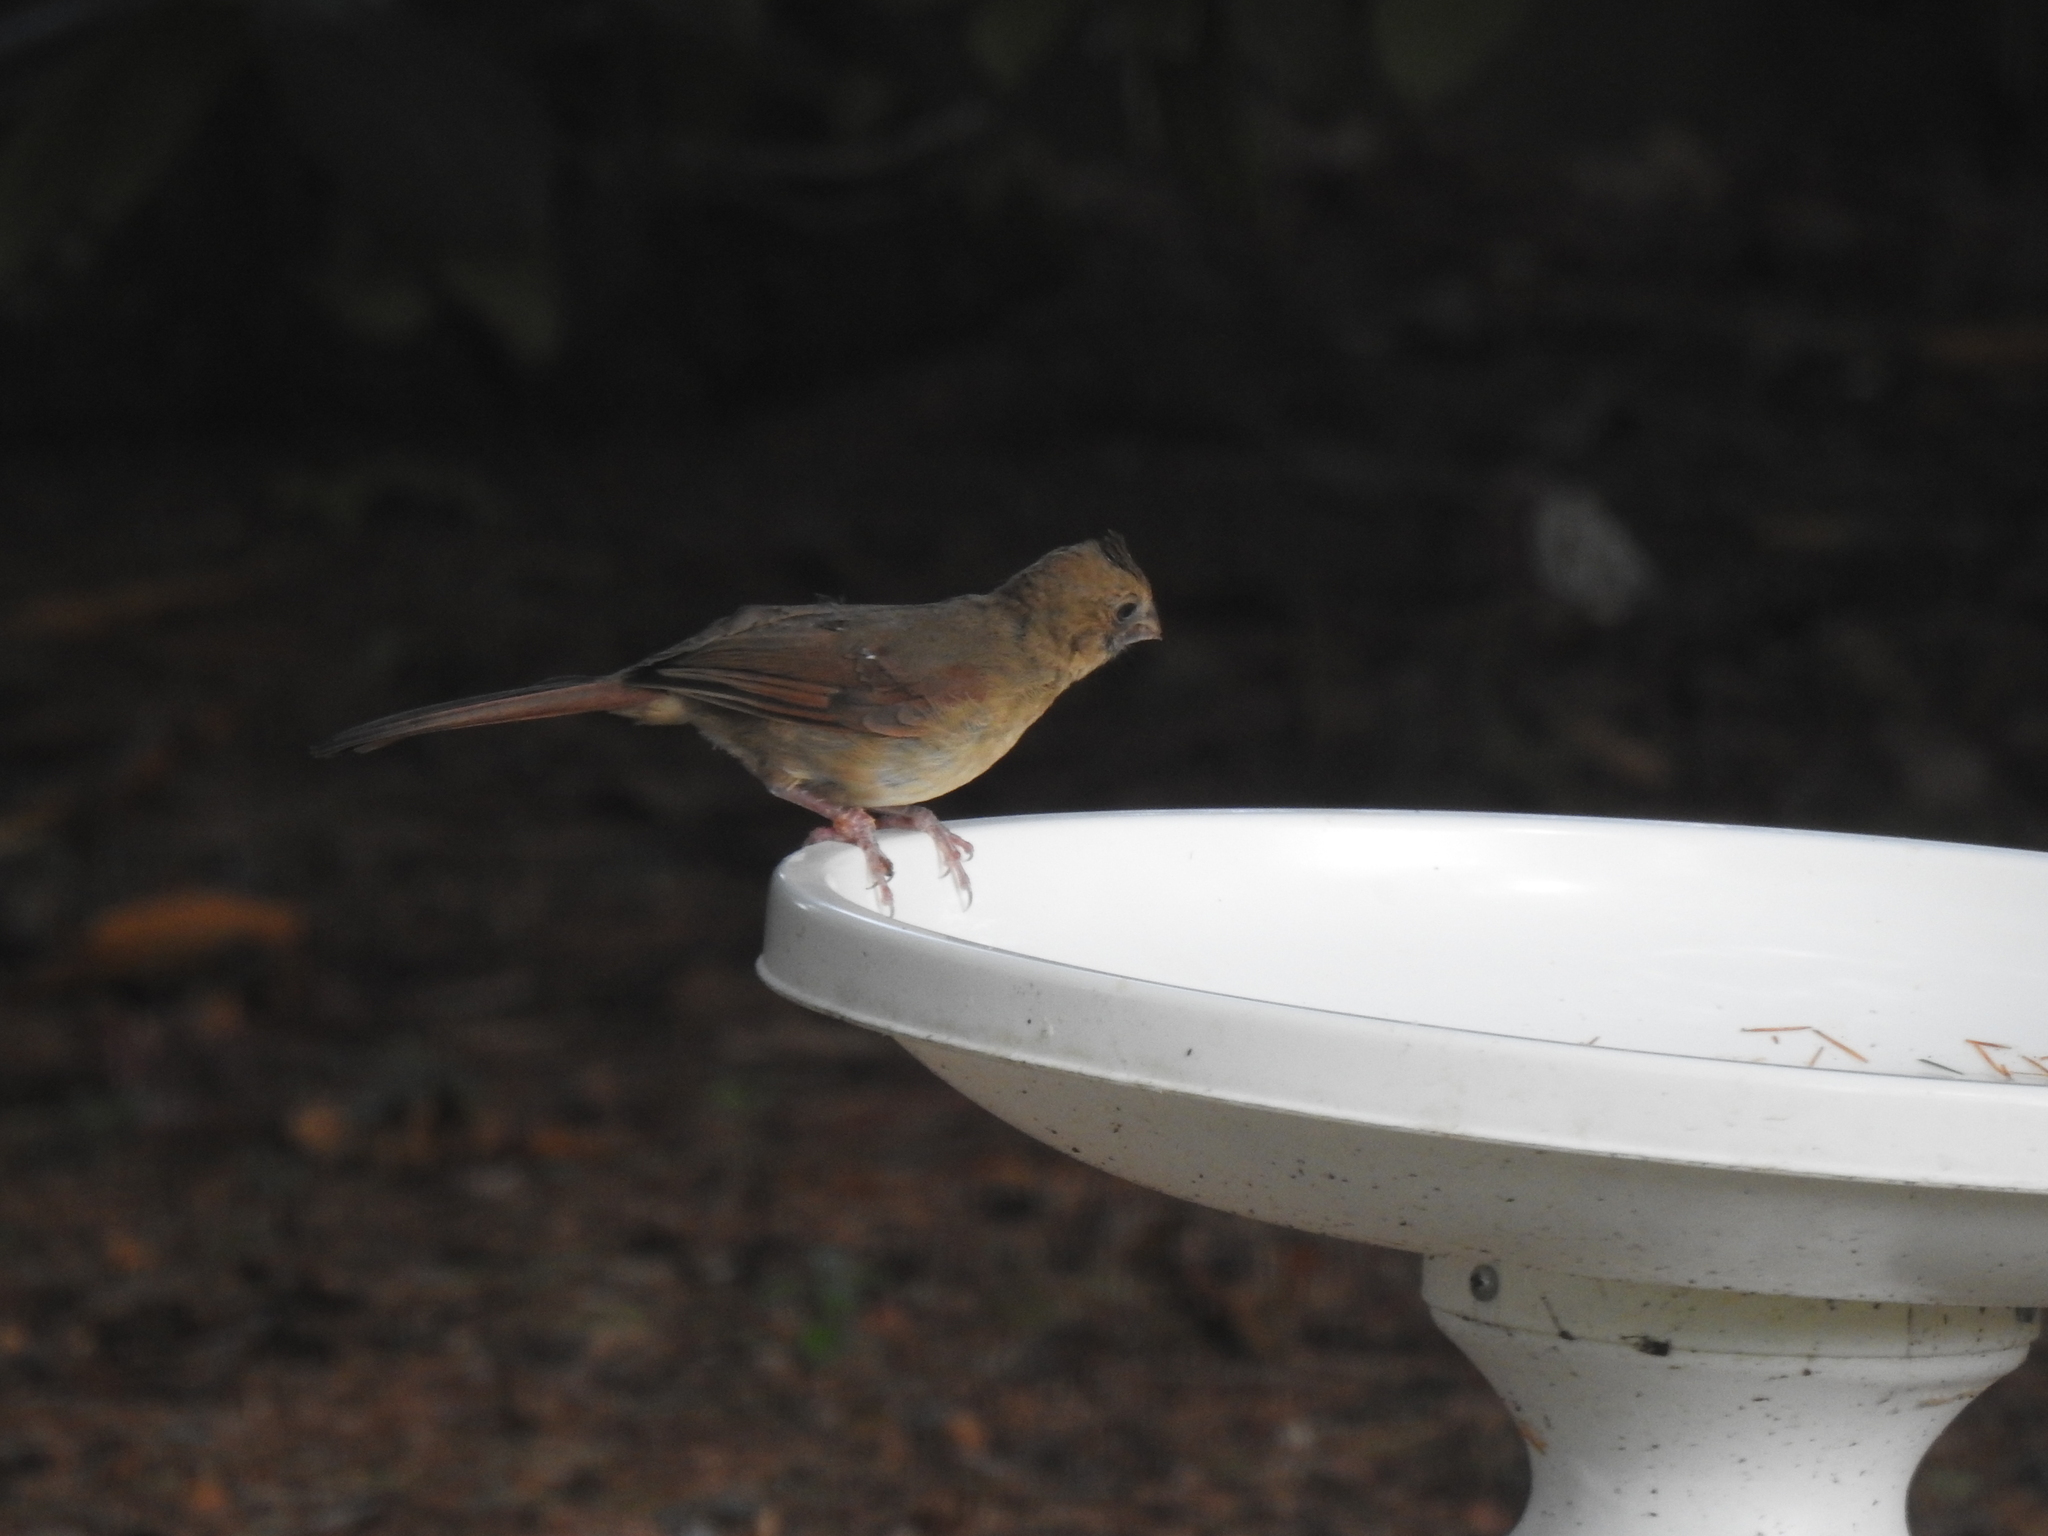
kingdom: Animalia
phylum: Chordata
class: Aves
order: Passeriformes
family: Cardinalidae
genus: Cardinalis
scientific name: Cardinalis cardinalis
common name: Northern cardinal
